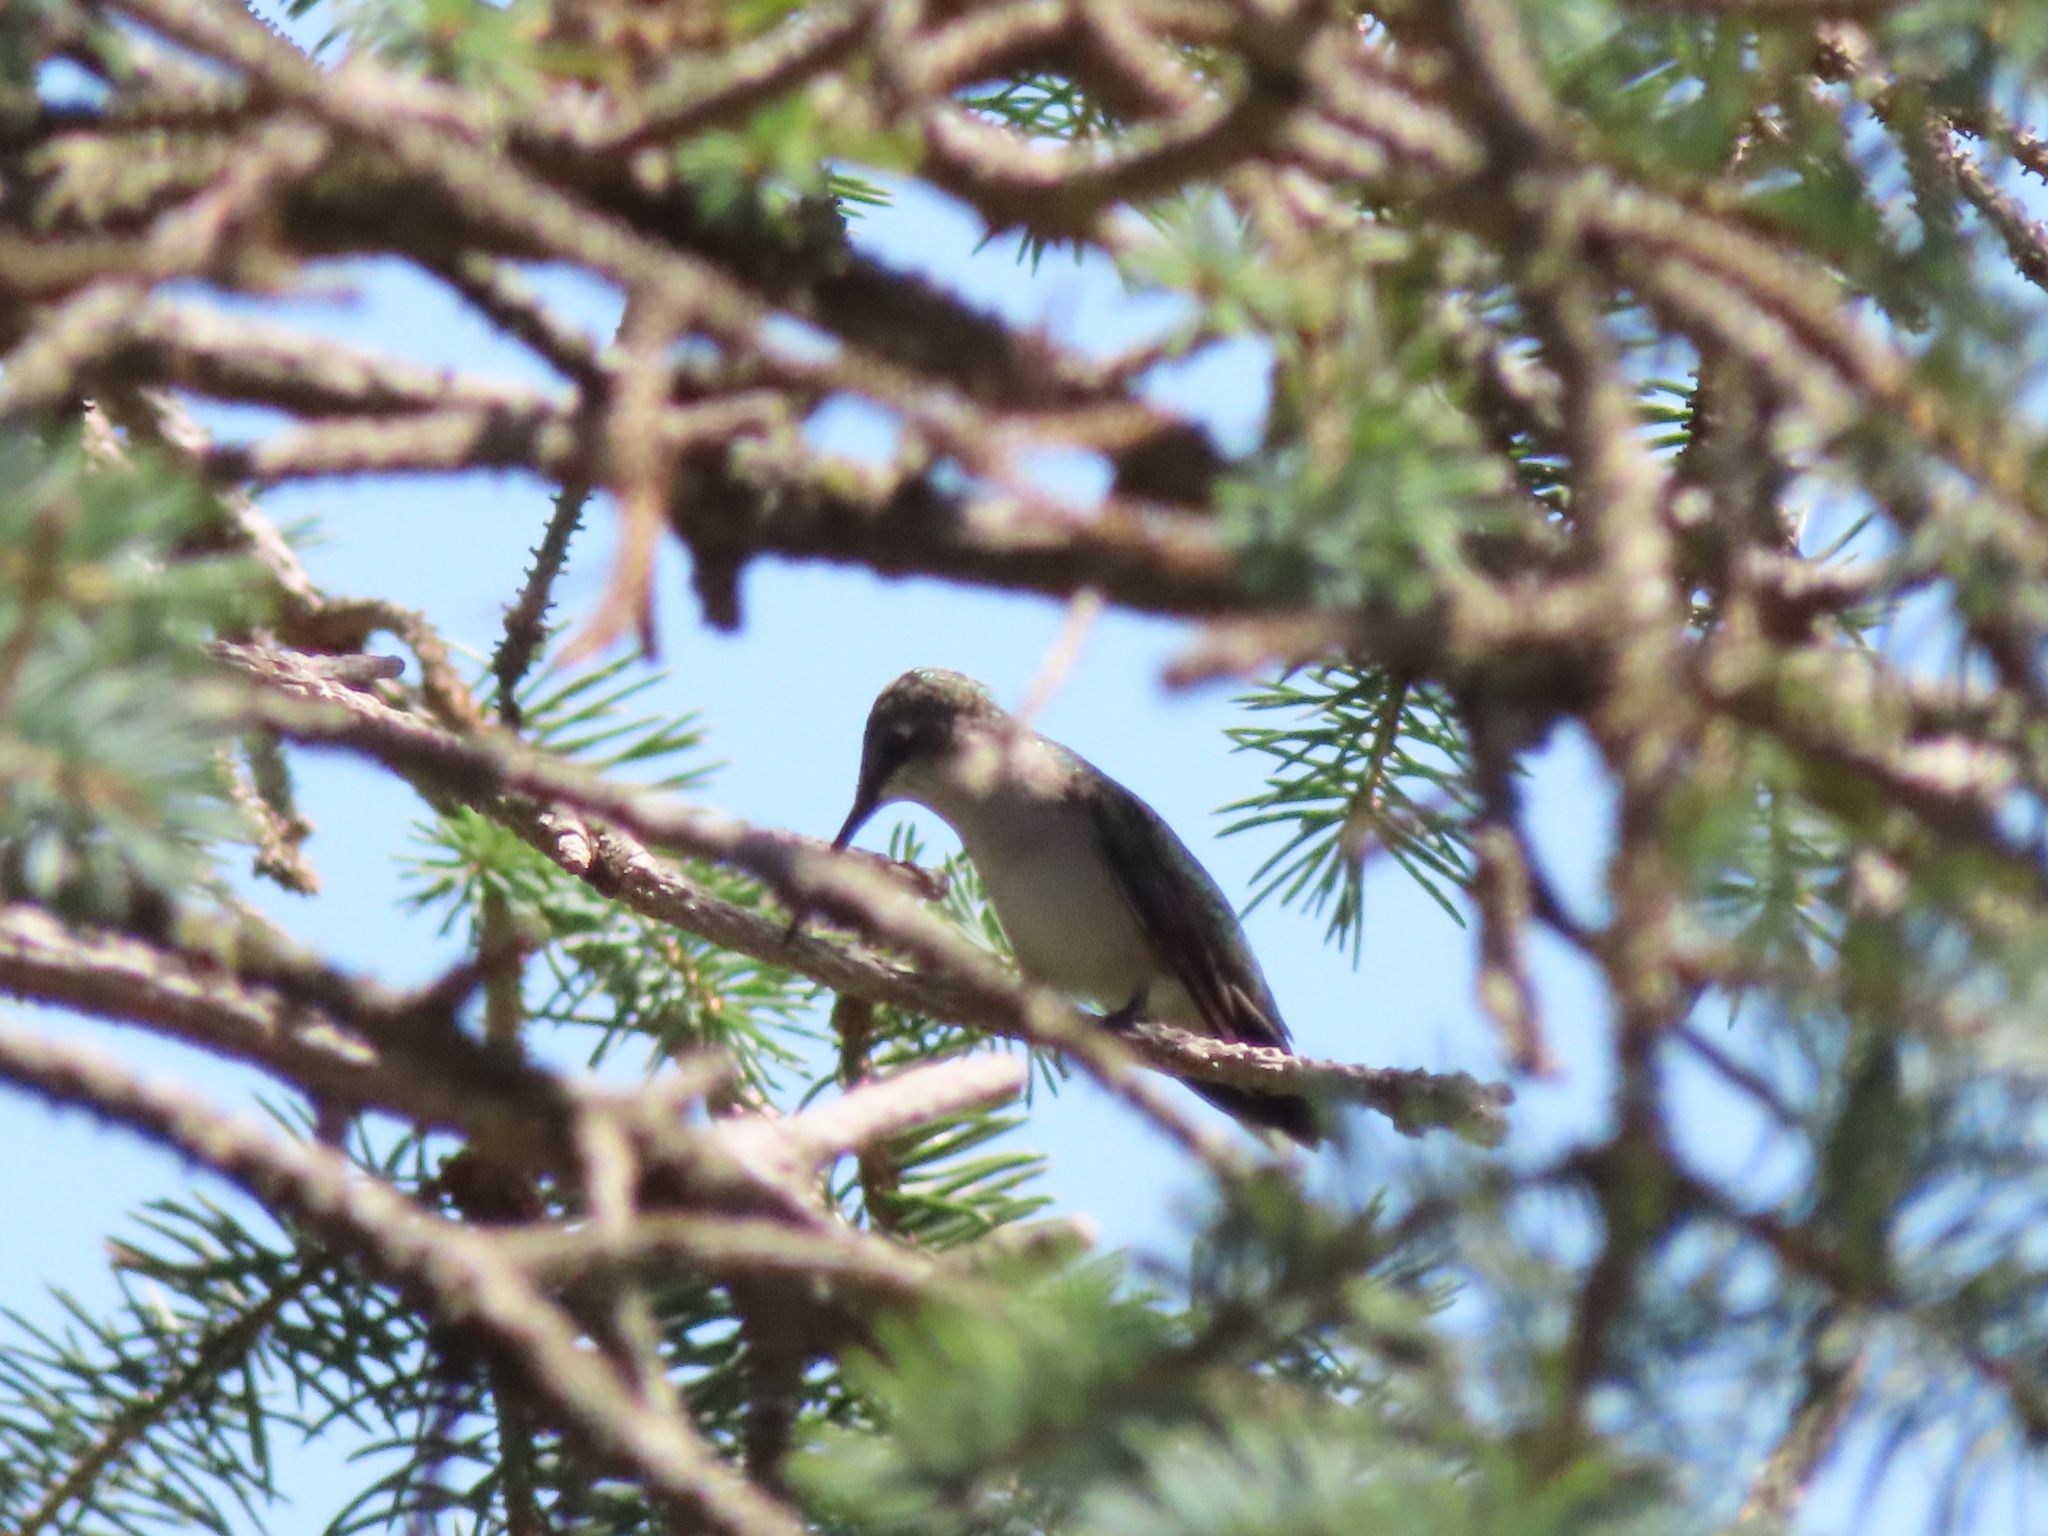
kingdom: Animalia
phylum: Chordata
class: Aves
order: Apodiformes
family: Trochilidae
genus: Archilochus
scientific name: Archilochus colubris
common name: Ruby-throated hummingbird
